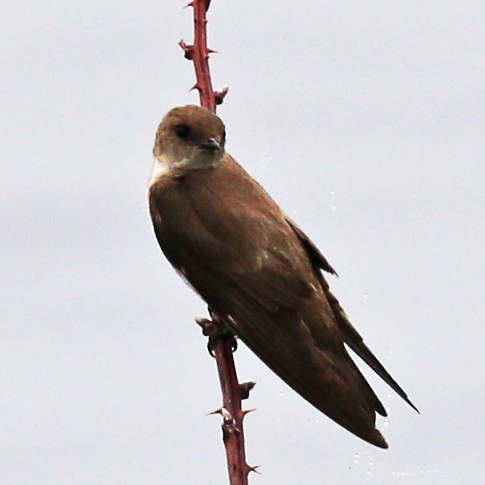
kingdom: Animalia
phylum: Chordata
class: Aves
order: Passeriformes
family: Hirundinidae
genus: Stelgidopteryx
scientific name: Stelgidopteryx serripennis
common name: Northern rough-winged swallow
